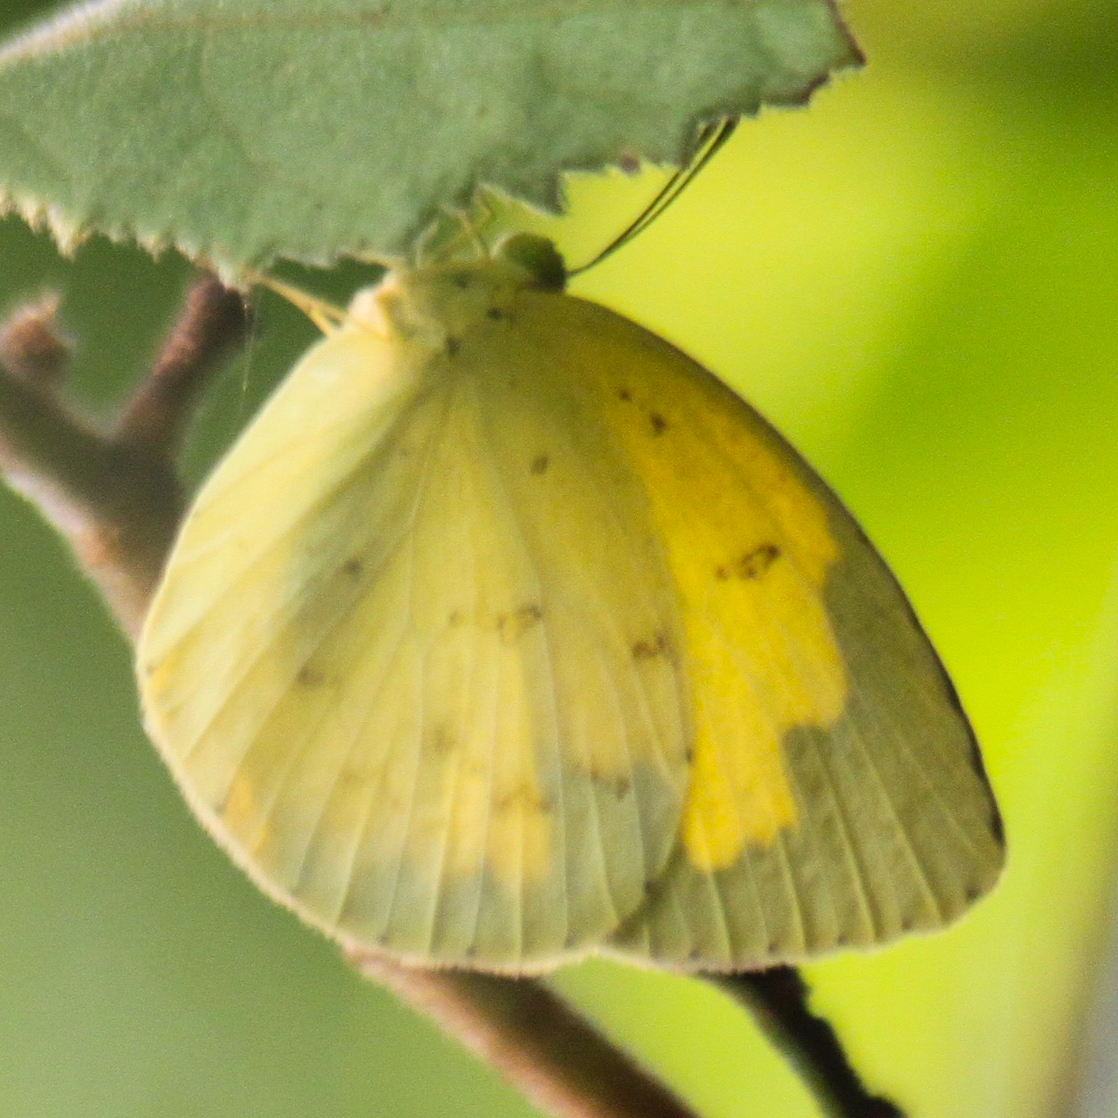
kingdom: Animalia
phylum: Arthropoda
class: Insecta
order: Lepidoptera
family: Pieridae
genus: Eurema
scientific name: Eurema hecabe
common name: Pale grass yellow
